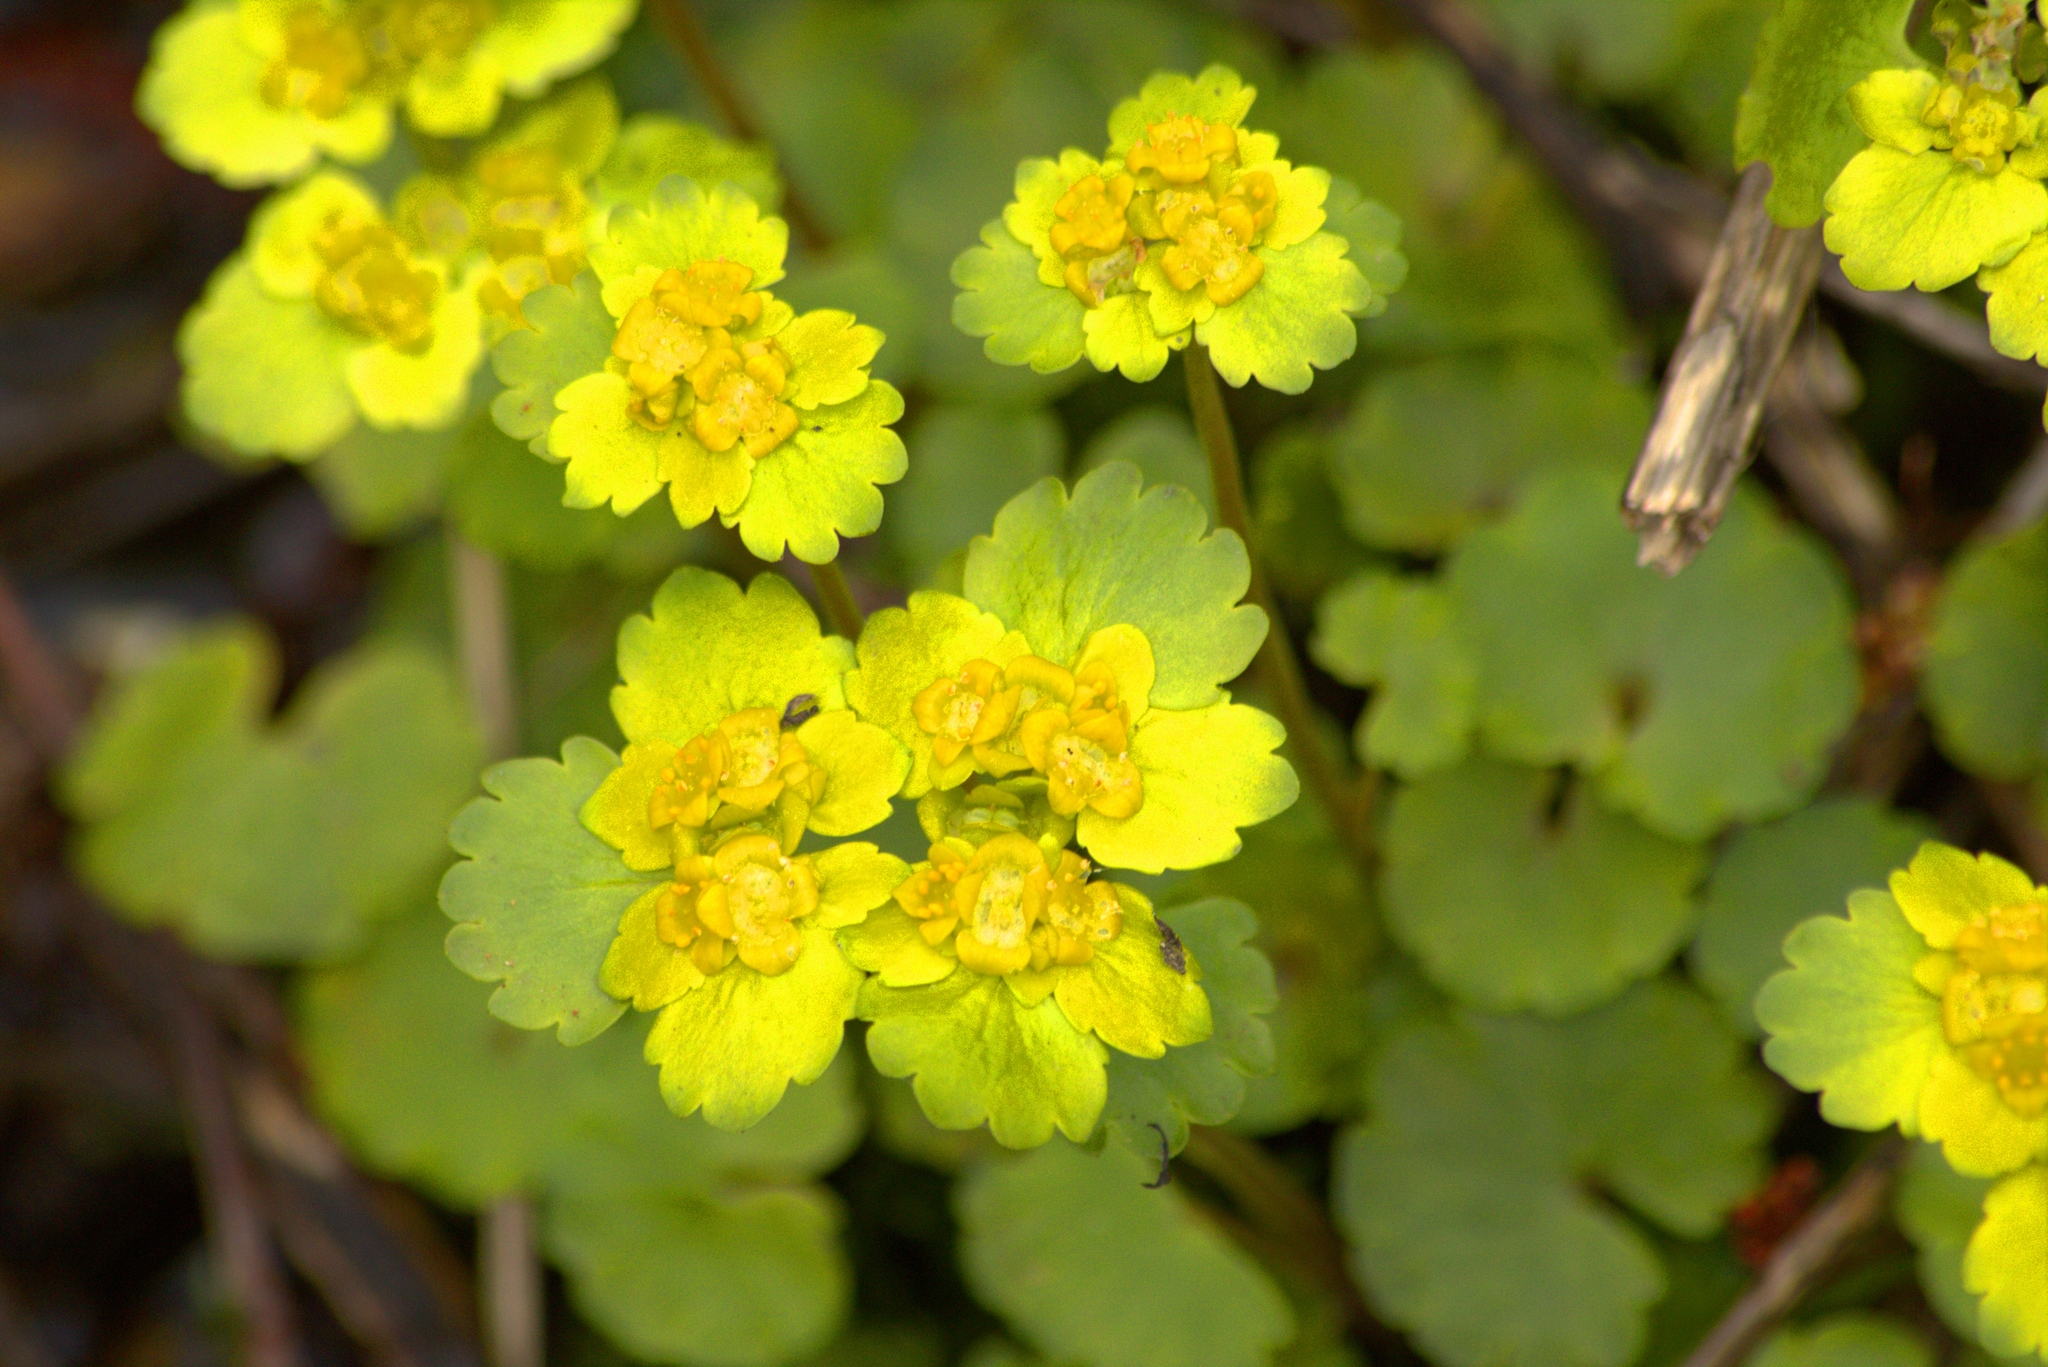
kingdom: Plantae
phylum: Tracheophyta
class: Magnoliopsida
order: Saxifragales
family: Saxifragaceae
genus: Chrysosplenium
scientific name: Chrysosplenium alternifolium
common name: Alternate-leaved golden-saxifrage
